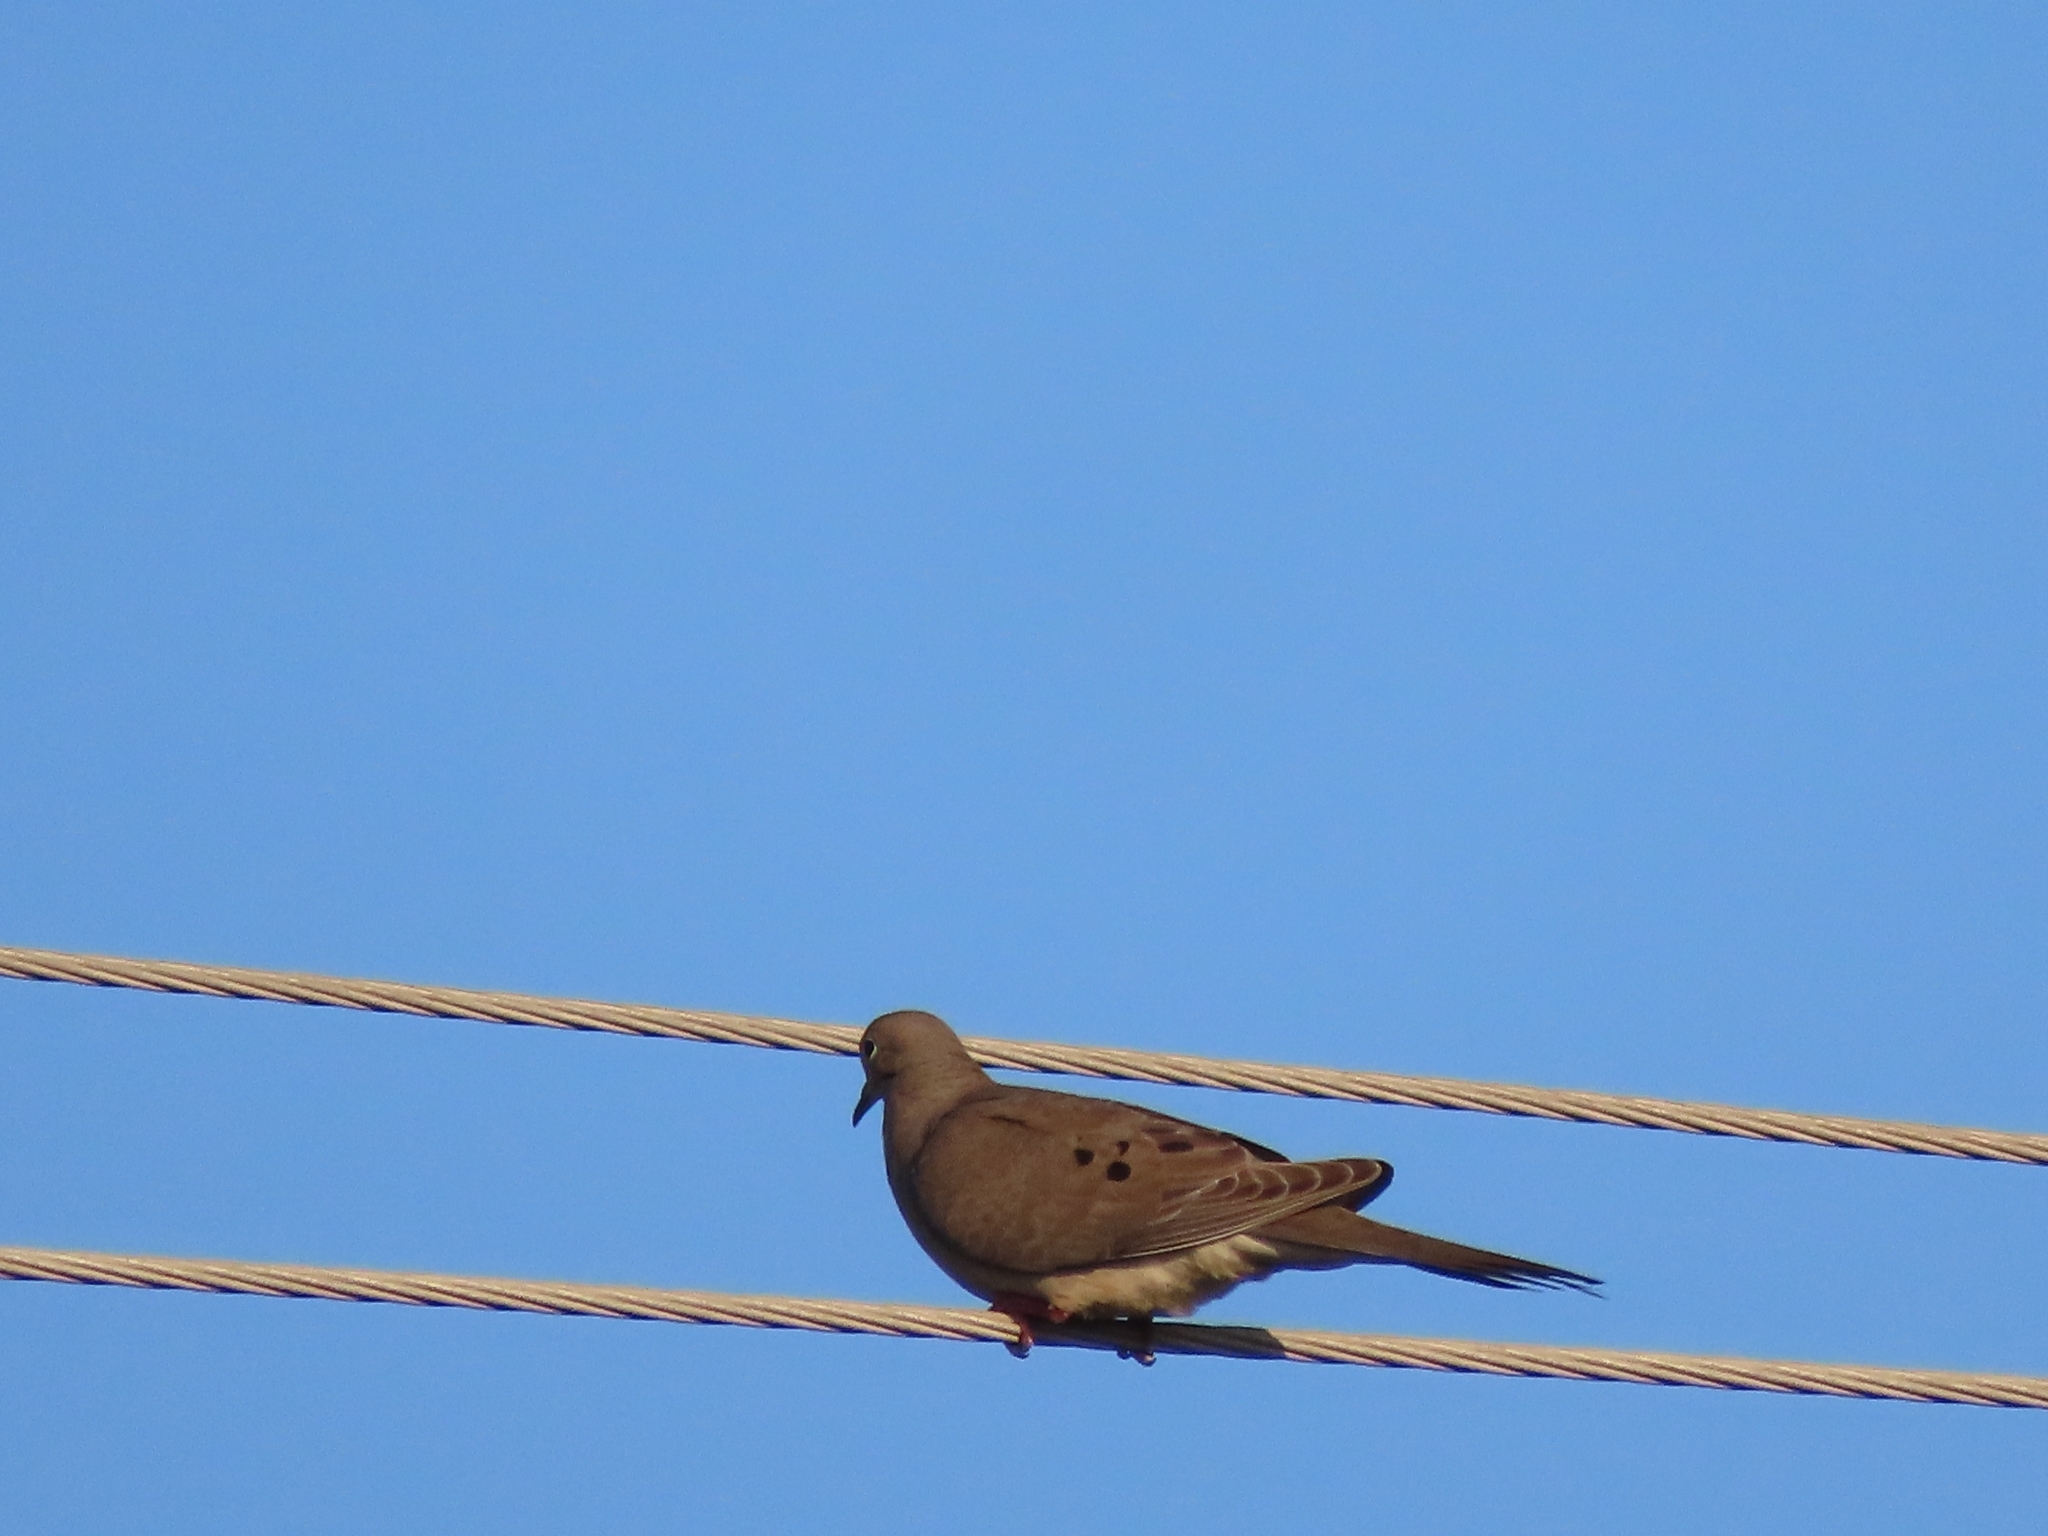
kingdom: Animalia
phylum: Chordata
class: Aves
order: Columbiformes
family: Columbidae
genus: Zenaida
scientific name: Zenaida macroura
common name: Mourning dove
